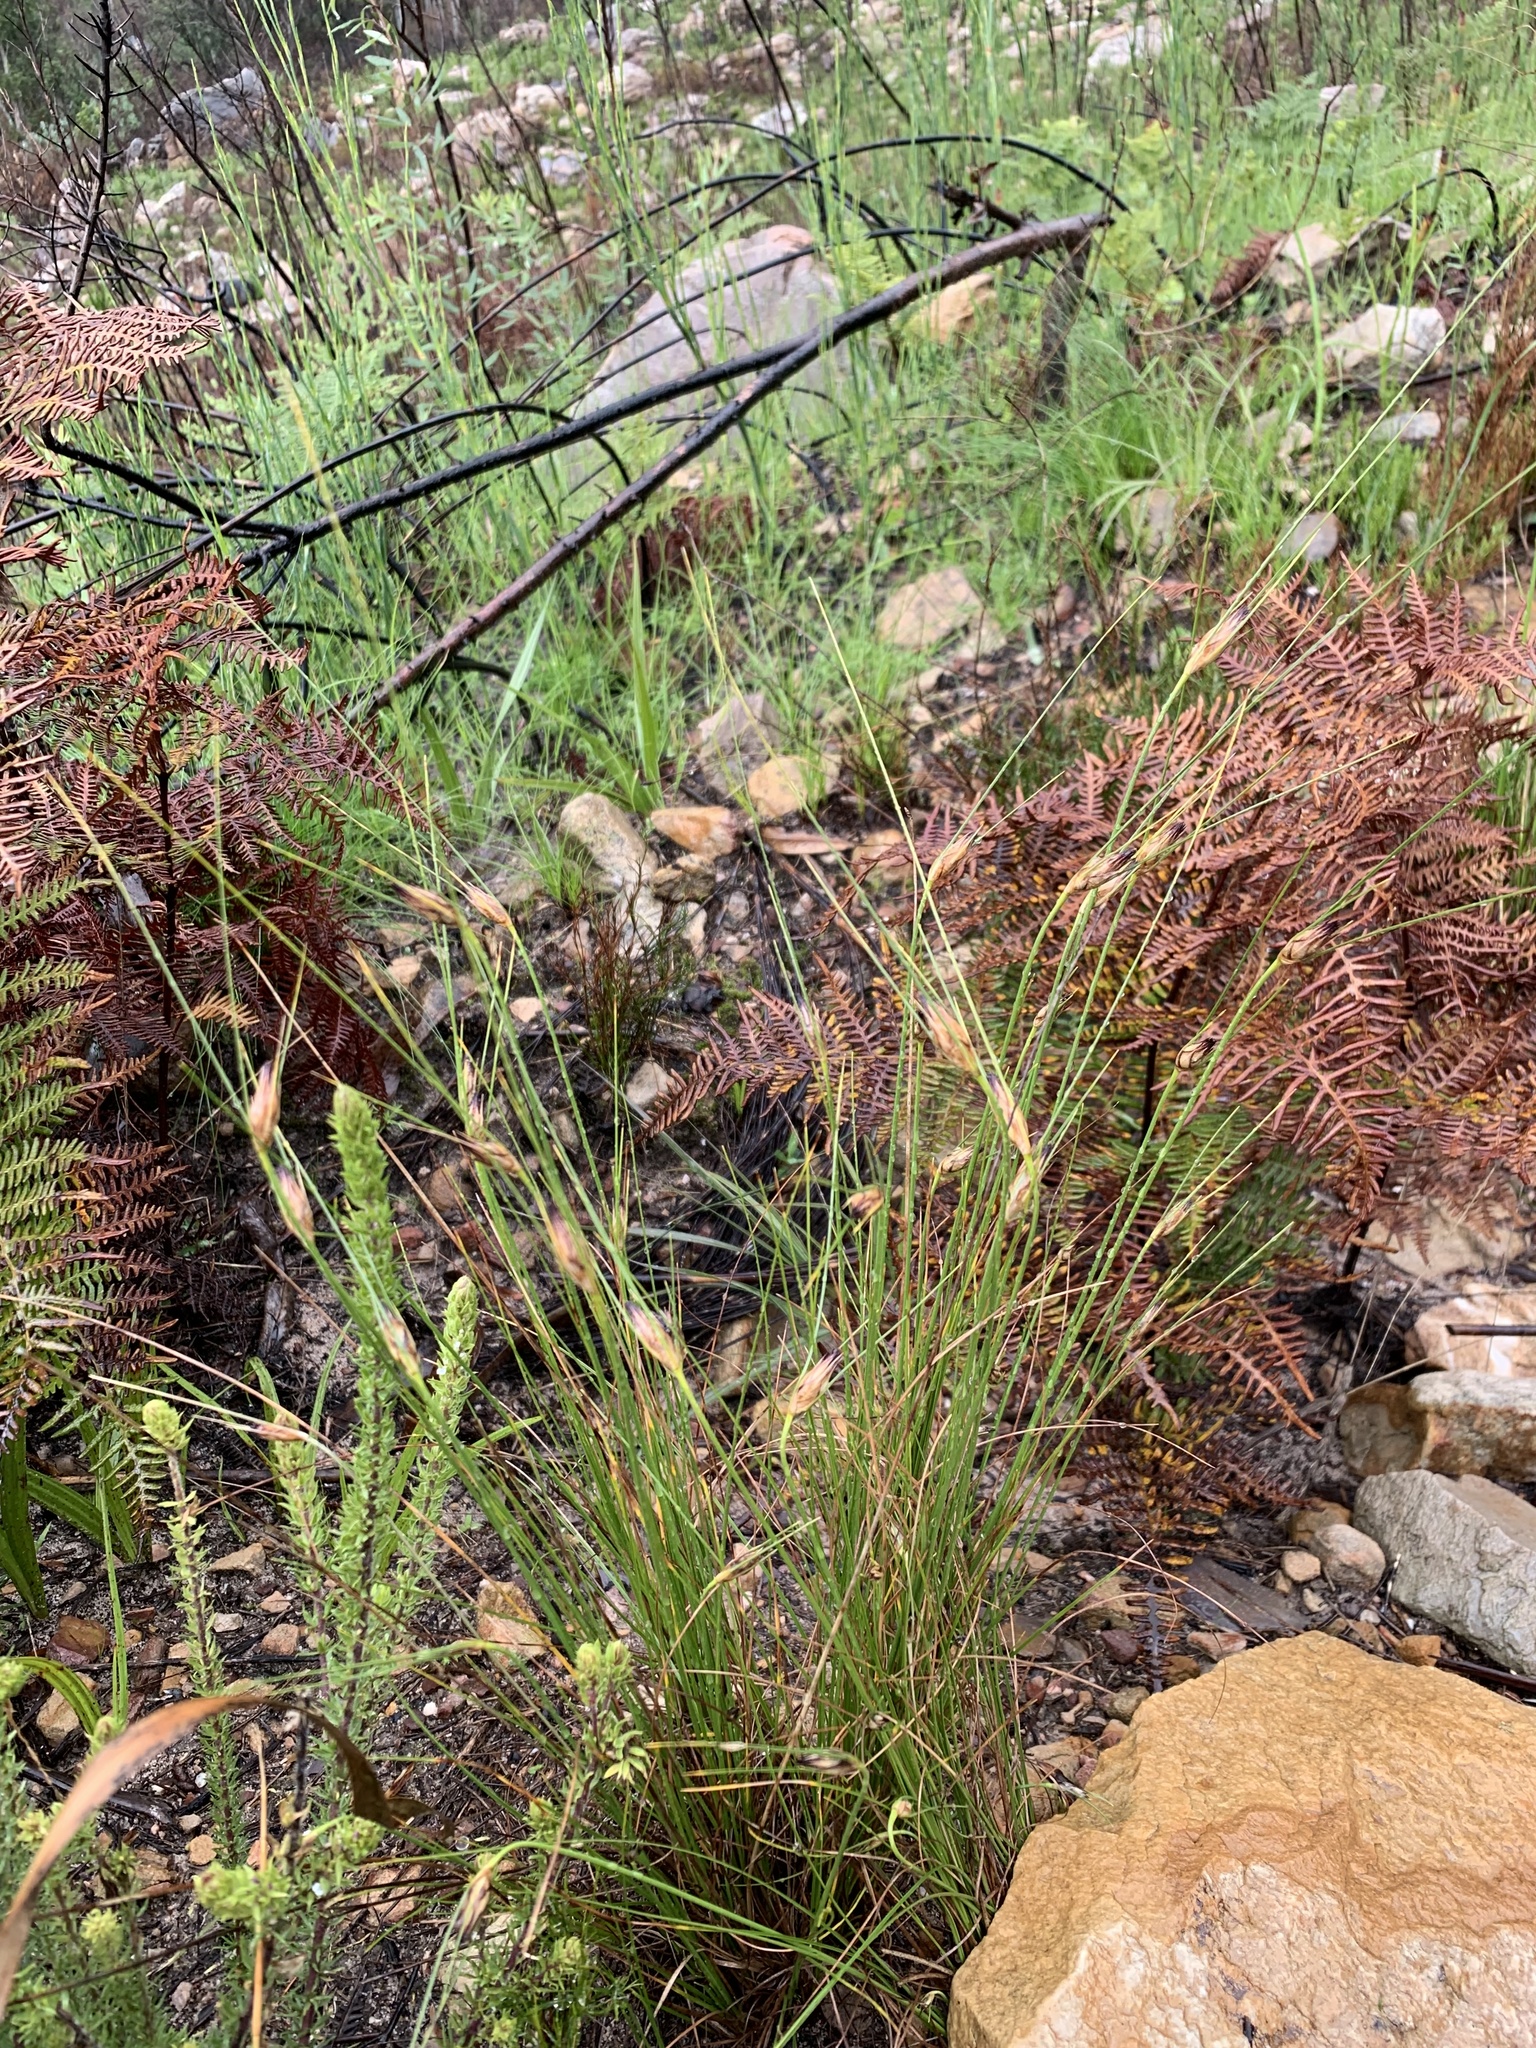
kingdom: Plantae
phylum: Tracheophyta
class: Liliopsida
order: Poales
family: Cyperaceae
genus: Ficinia
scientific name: Ficinia nigrescens
